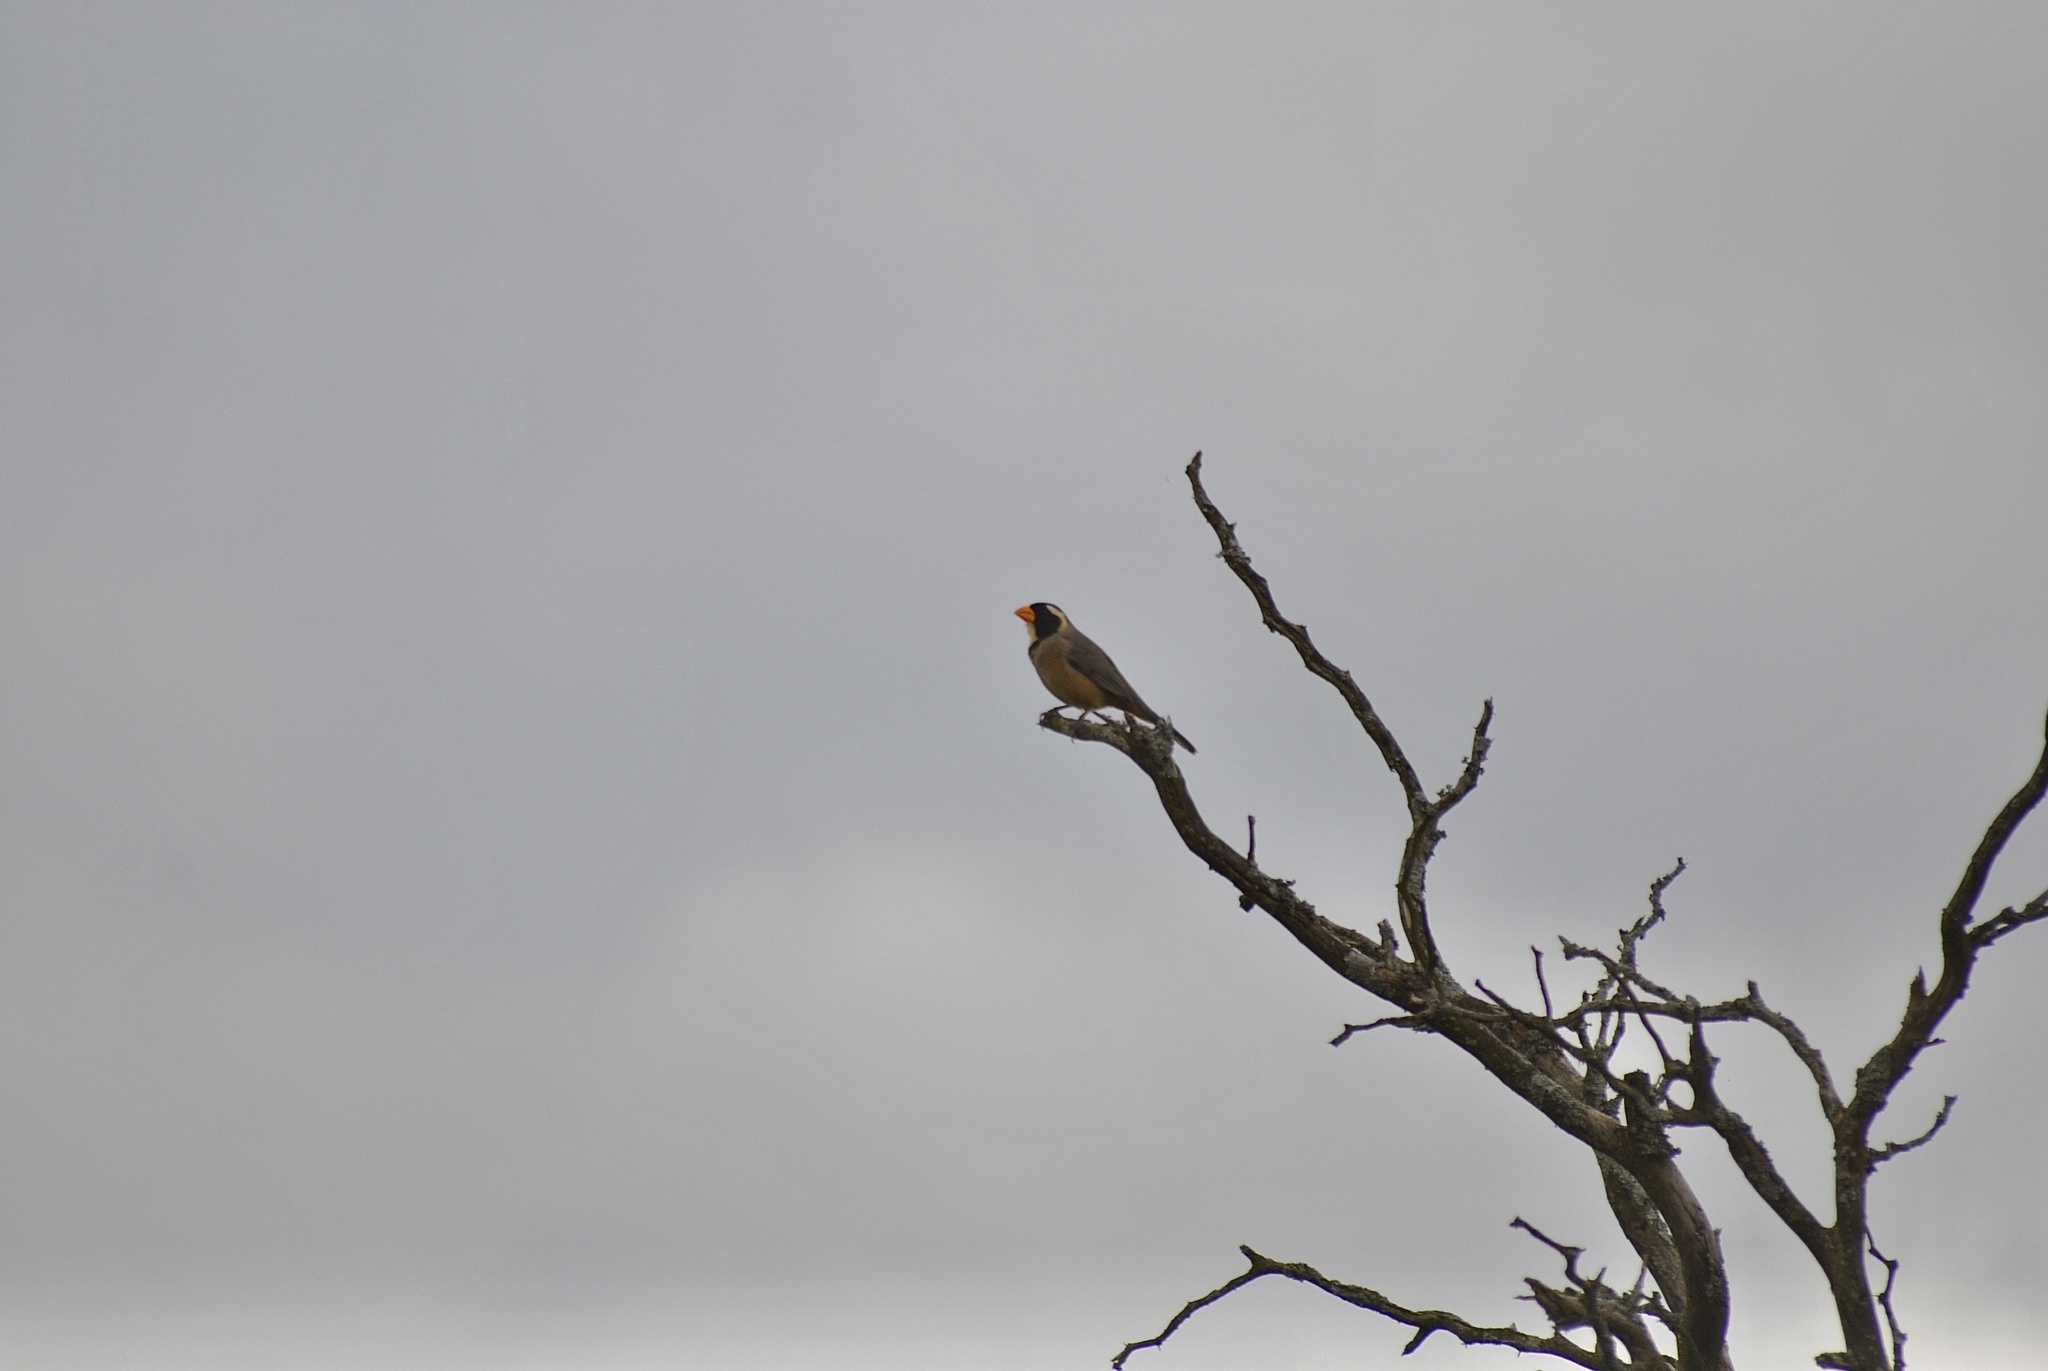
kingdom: Animalia
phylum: Chordata
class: Aves
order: Passeriformes
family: Thraupidae
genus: Saltator
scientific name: Saltator aurantiirostris
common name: Golden-billed saltator
